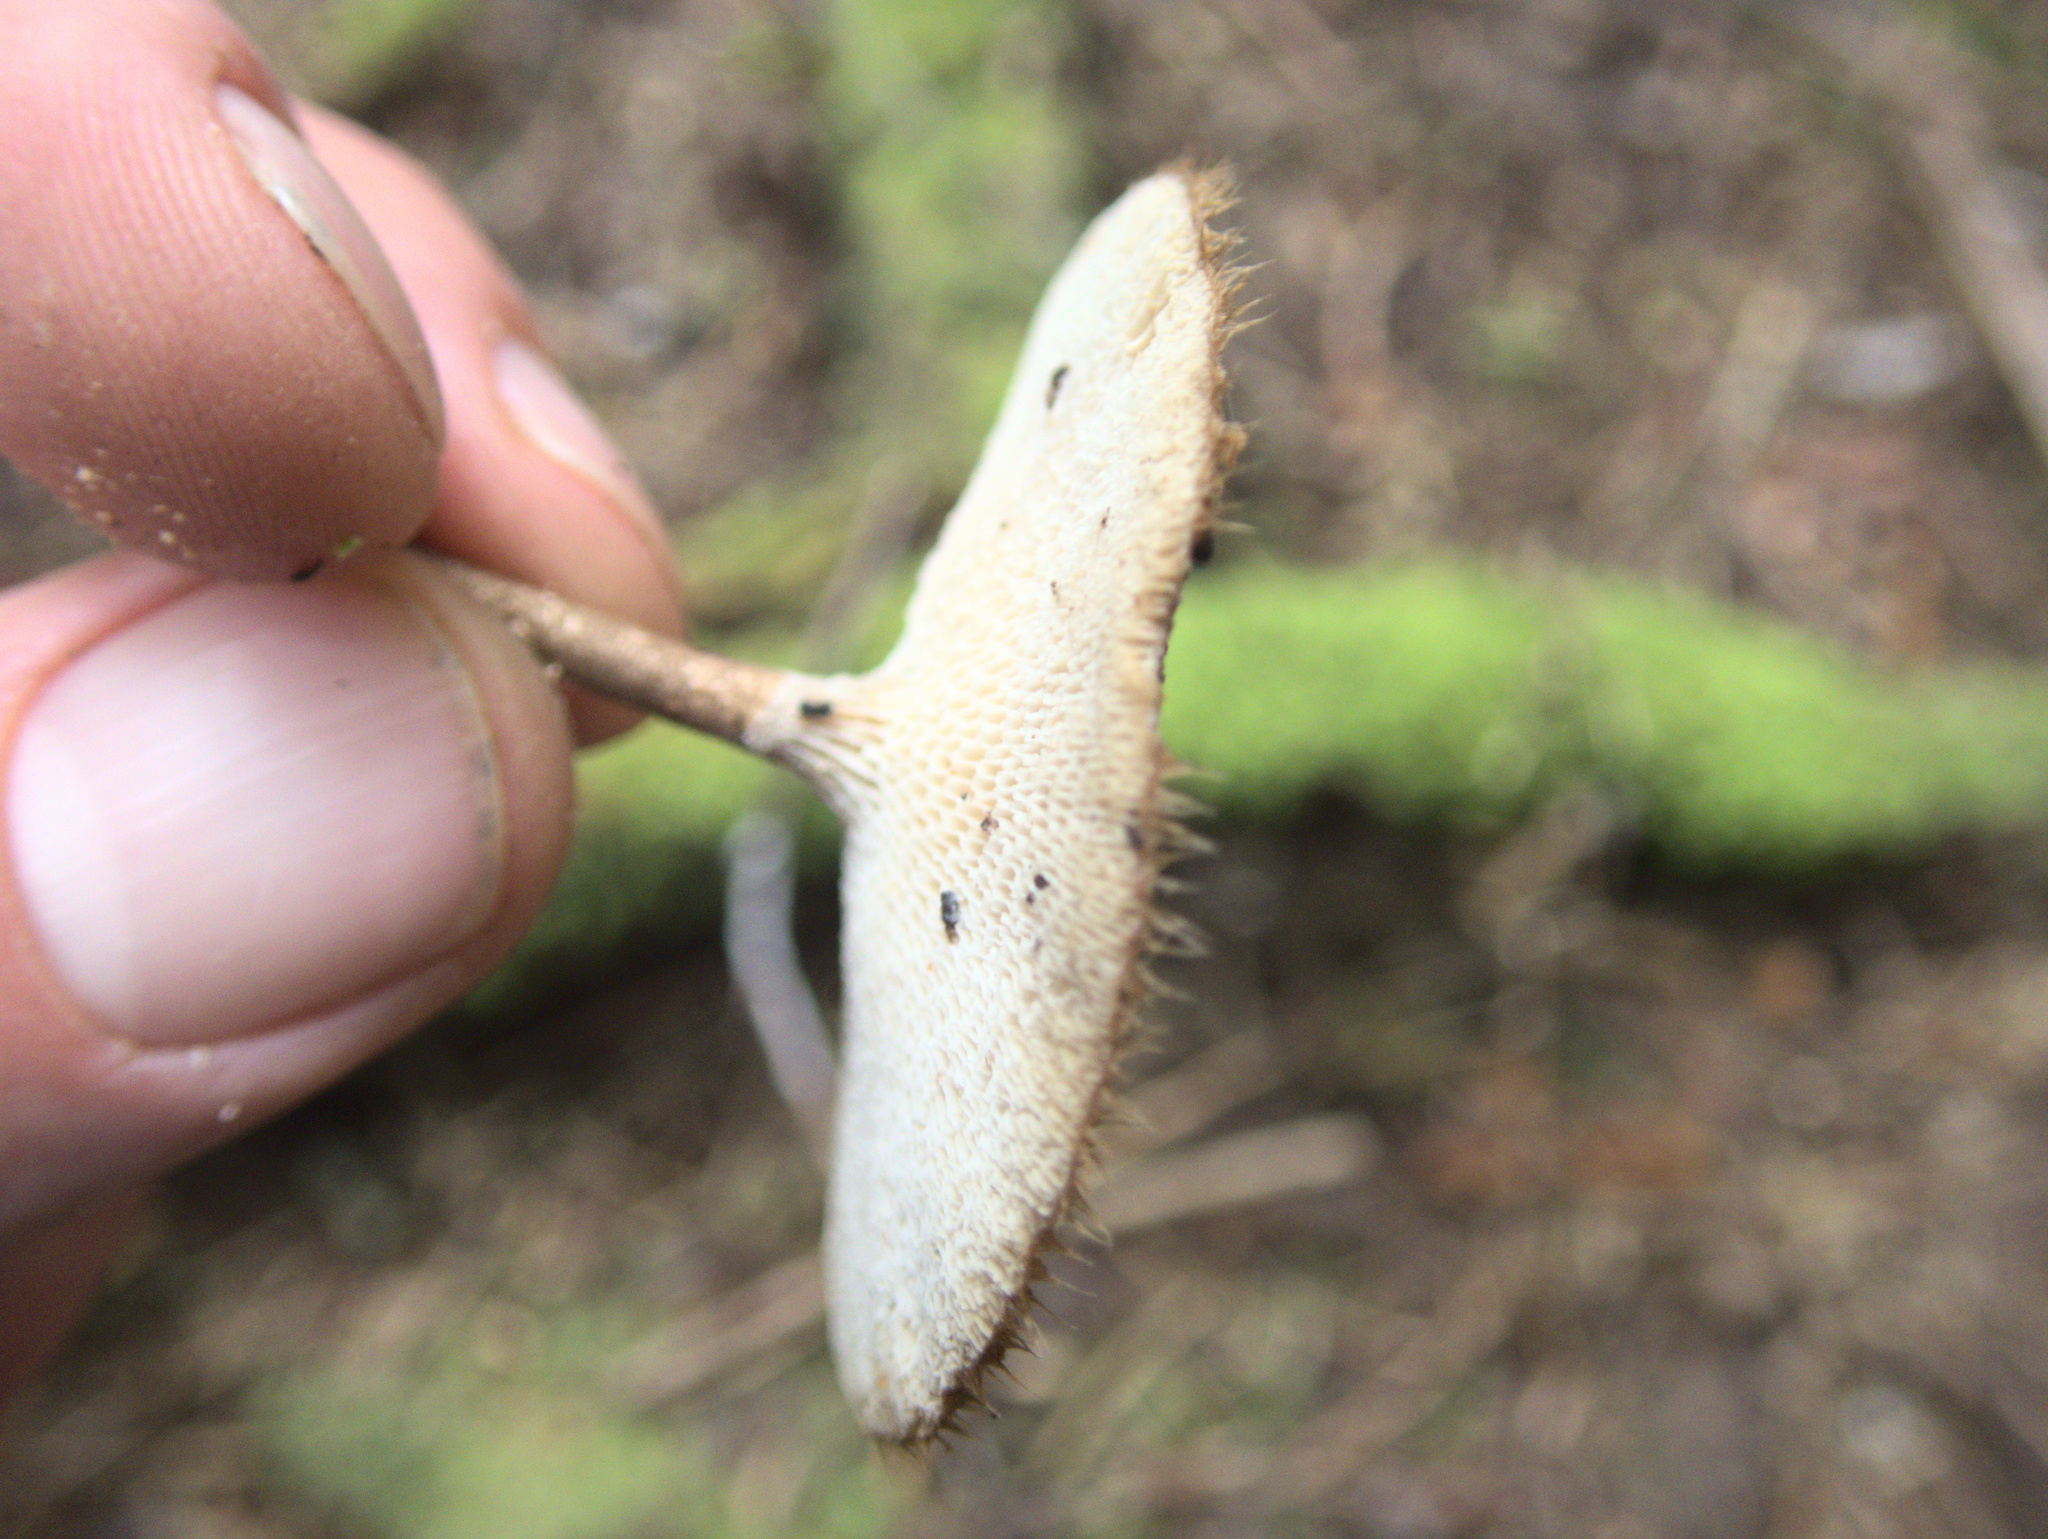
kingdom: Fungi
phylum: Basidiomycota
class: Agaricomycetes
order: Polyporales
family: Polyporaceae
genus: Lentinus
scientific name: Lentinus arcularius
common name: Spring polypore
